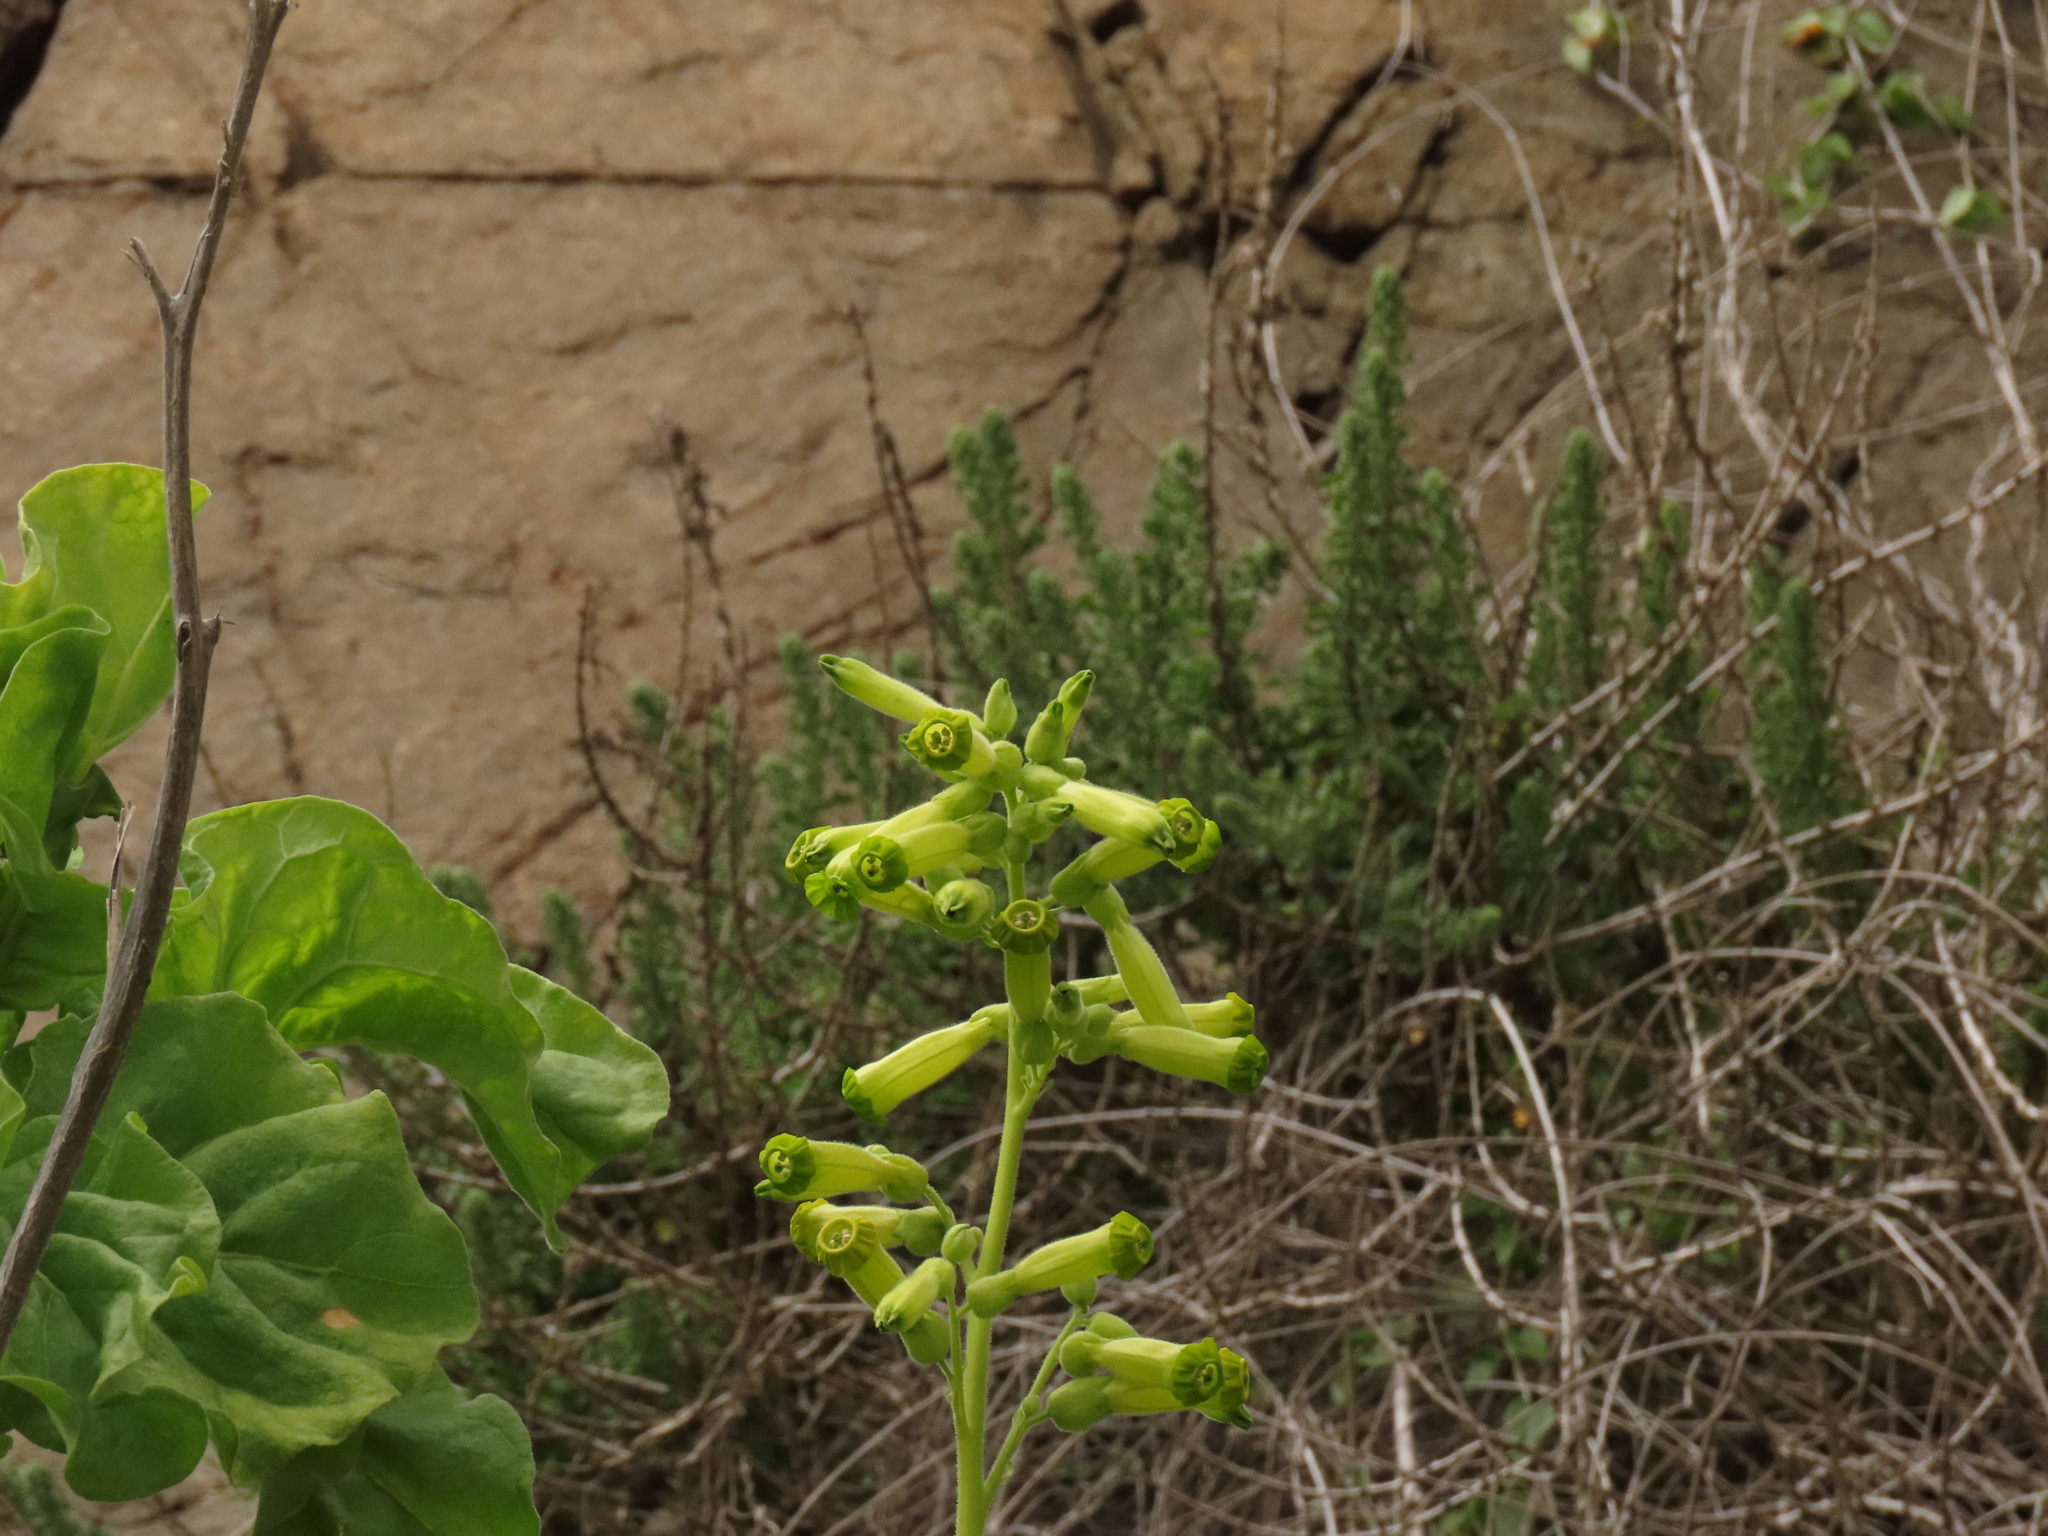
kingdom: Plantae
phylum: Tracheophyta
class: Magnoliopsida
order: Solanales
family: Solanaceae
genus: Nicotiana
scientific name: Nicotiana solanifolia
